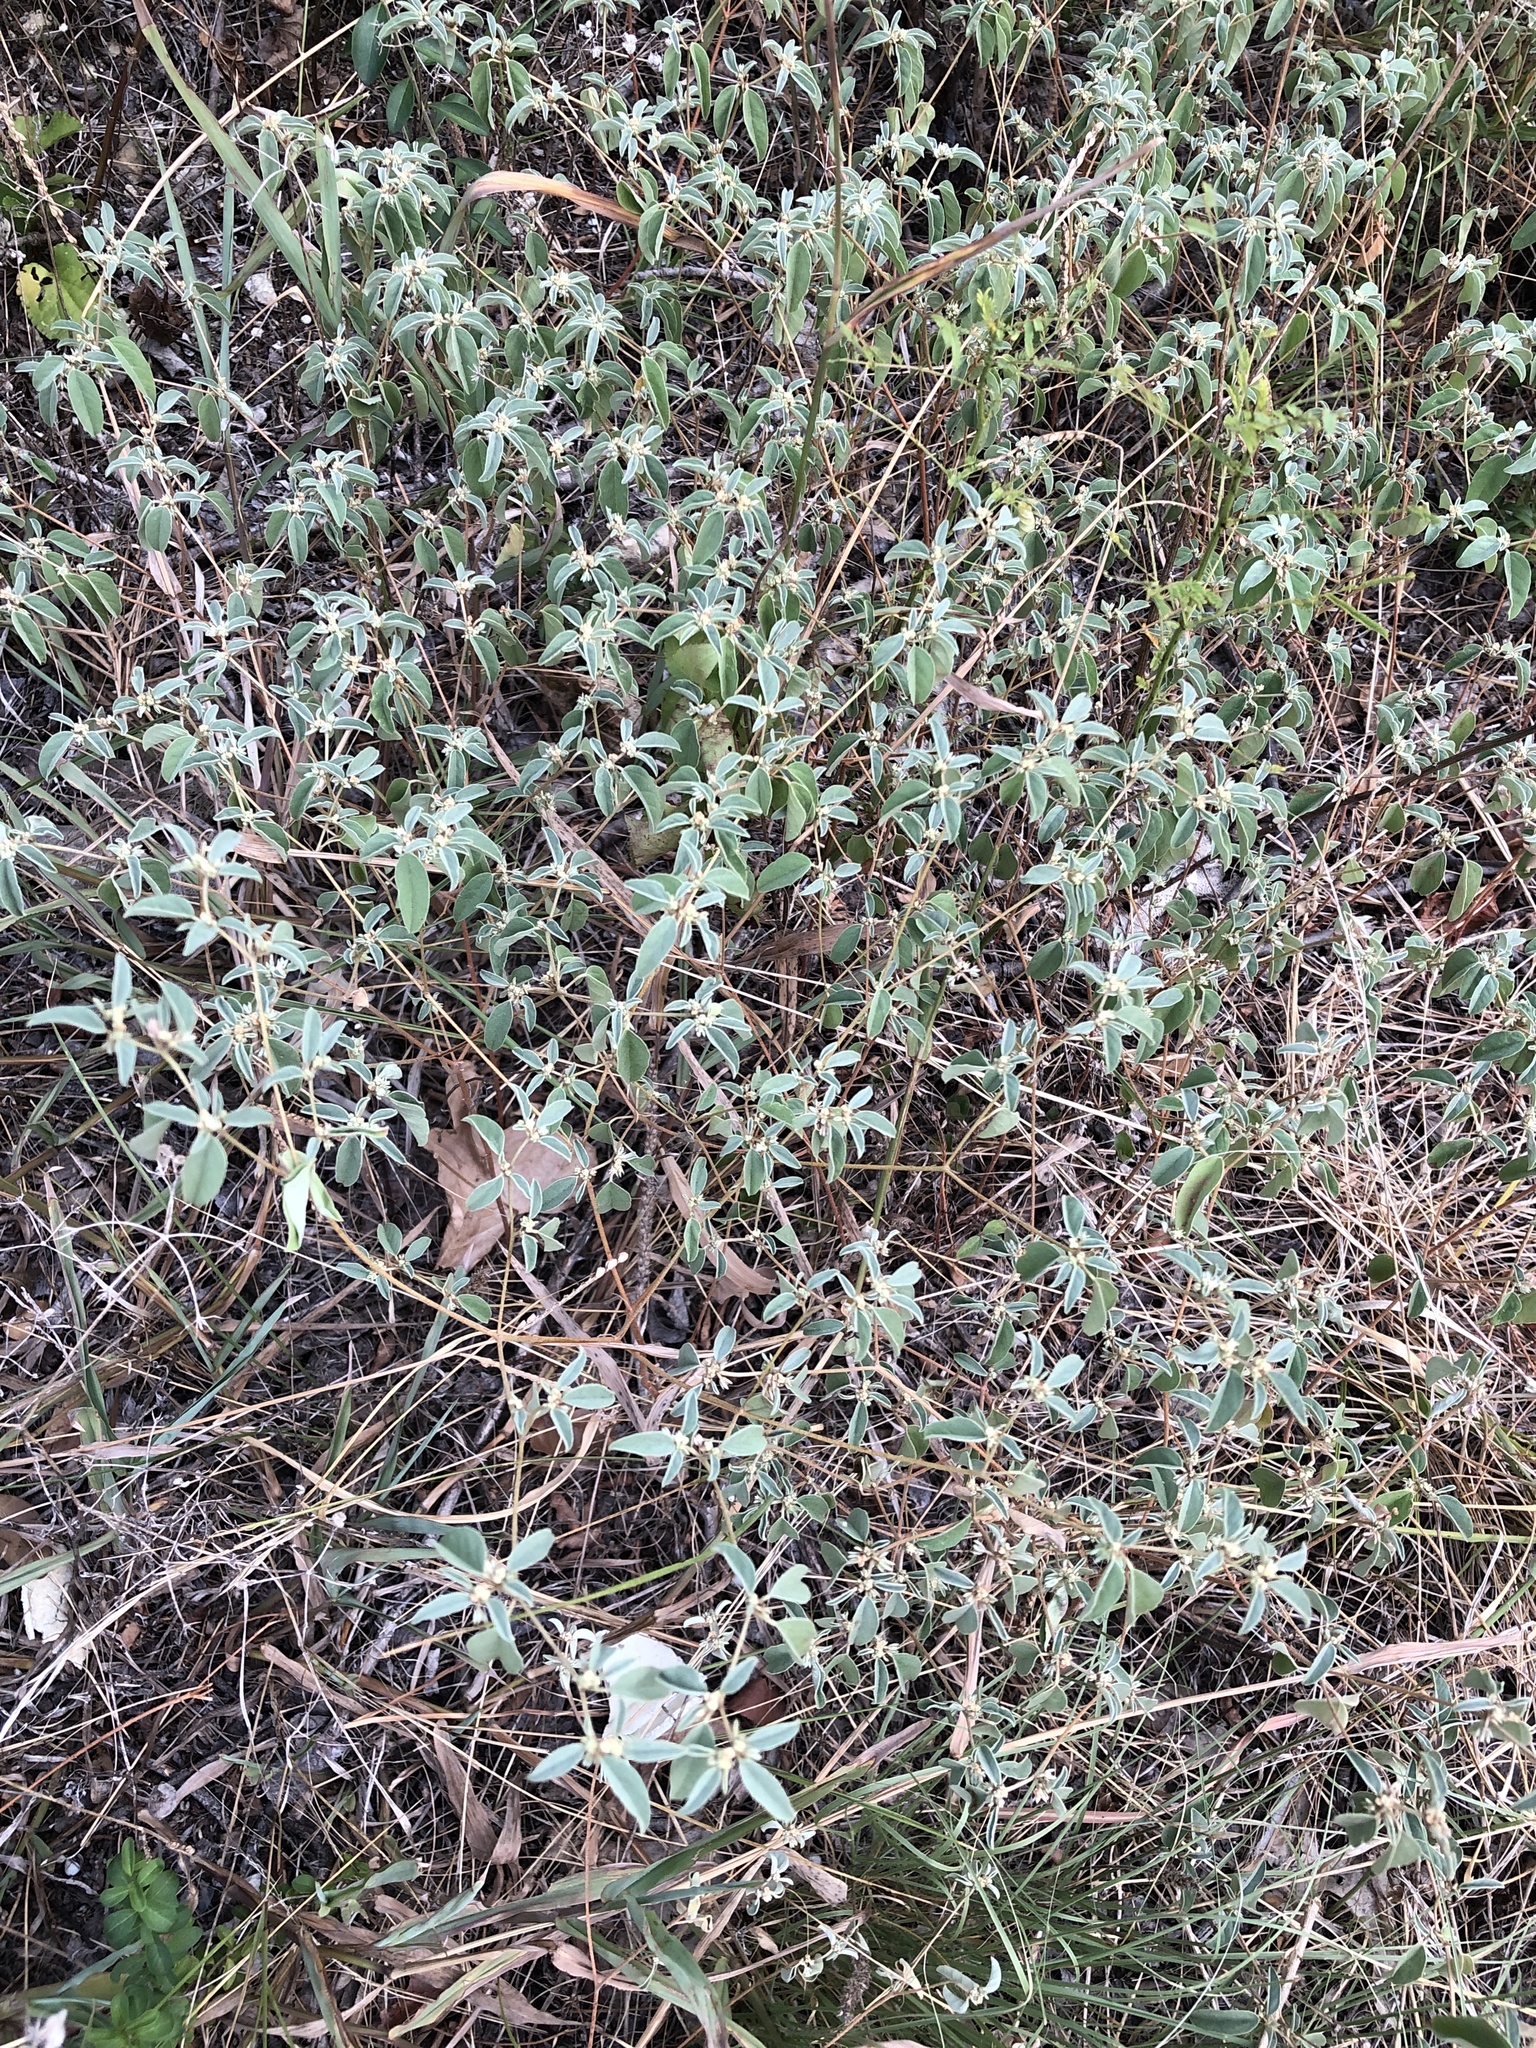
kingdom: Plantae
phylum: Tracheophyta
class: Magnoliopsida
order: Malpighiales
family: Euphorbiaceae
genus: Croton
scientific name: Croton monanthogynus
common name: One-seed croton
